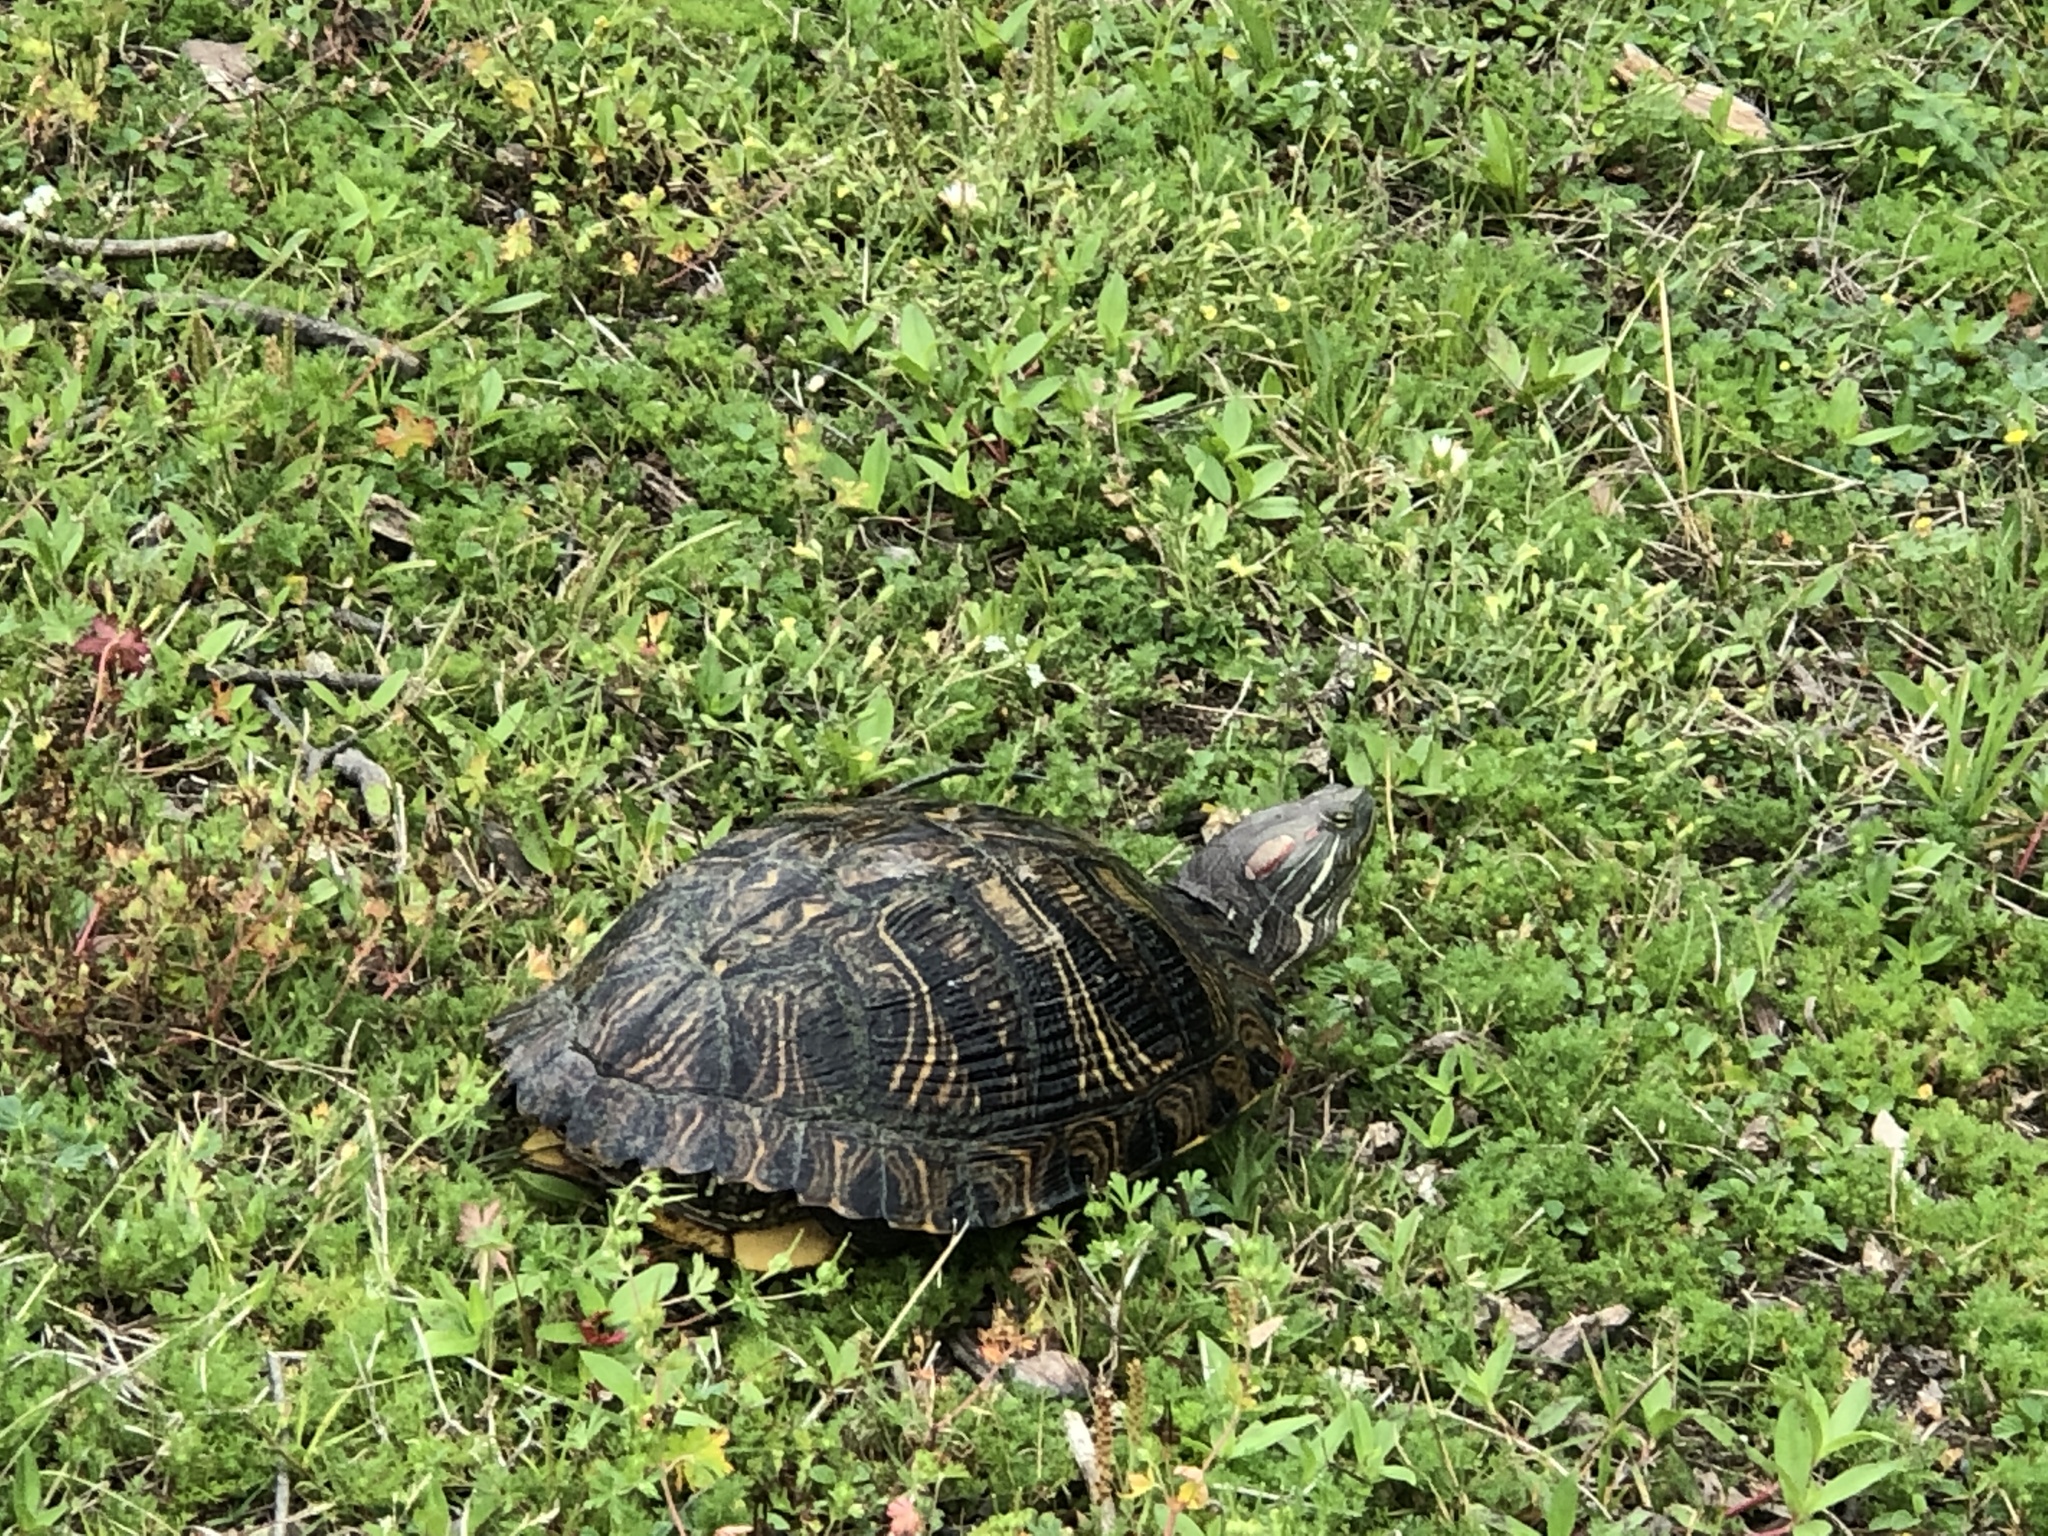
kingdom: Animalia
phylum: Chordata
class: Testudines
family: Emydidae
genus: Trachemys
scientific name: Trachemys scripta
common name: Slider
